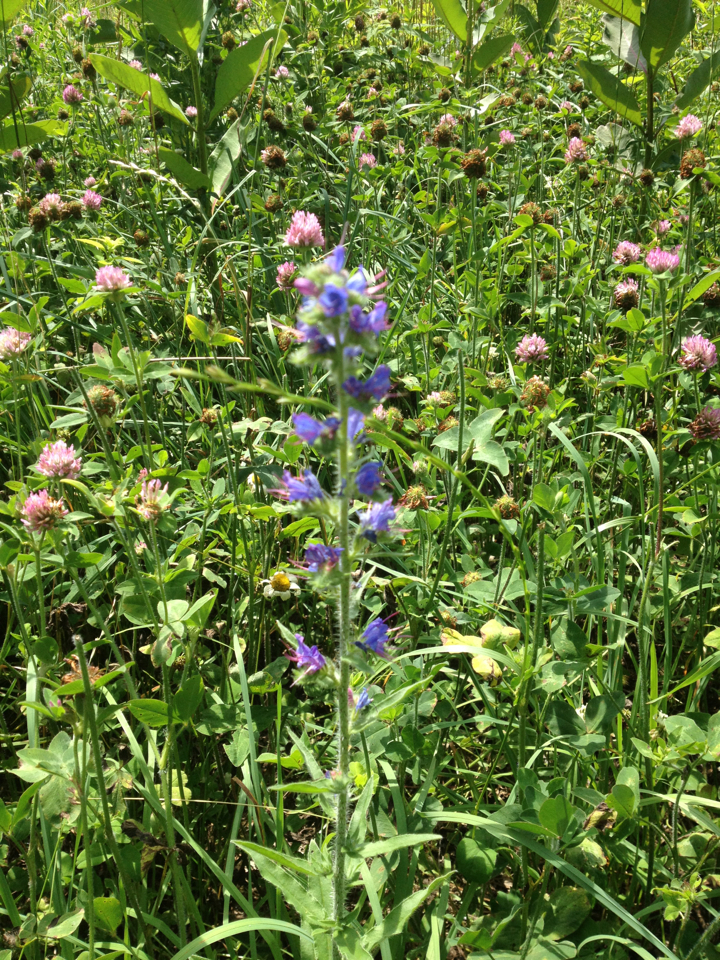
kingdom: Plantae
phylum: Tracheophyta
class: Magnoliopsida
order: Boraginales
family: Boraginaceae
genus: Echium
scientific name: Echium vulgare
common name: Common viper's bugloss
